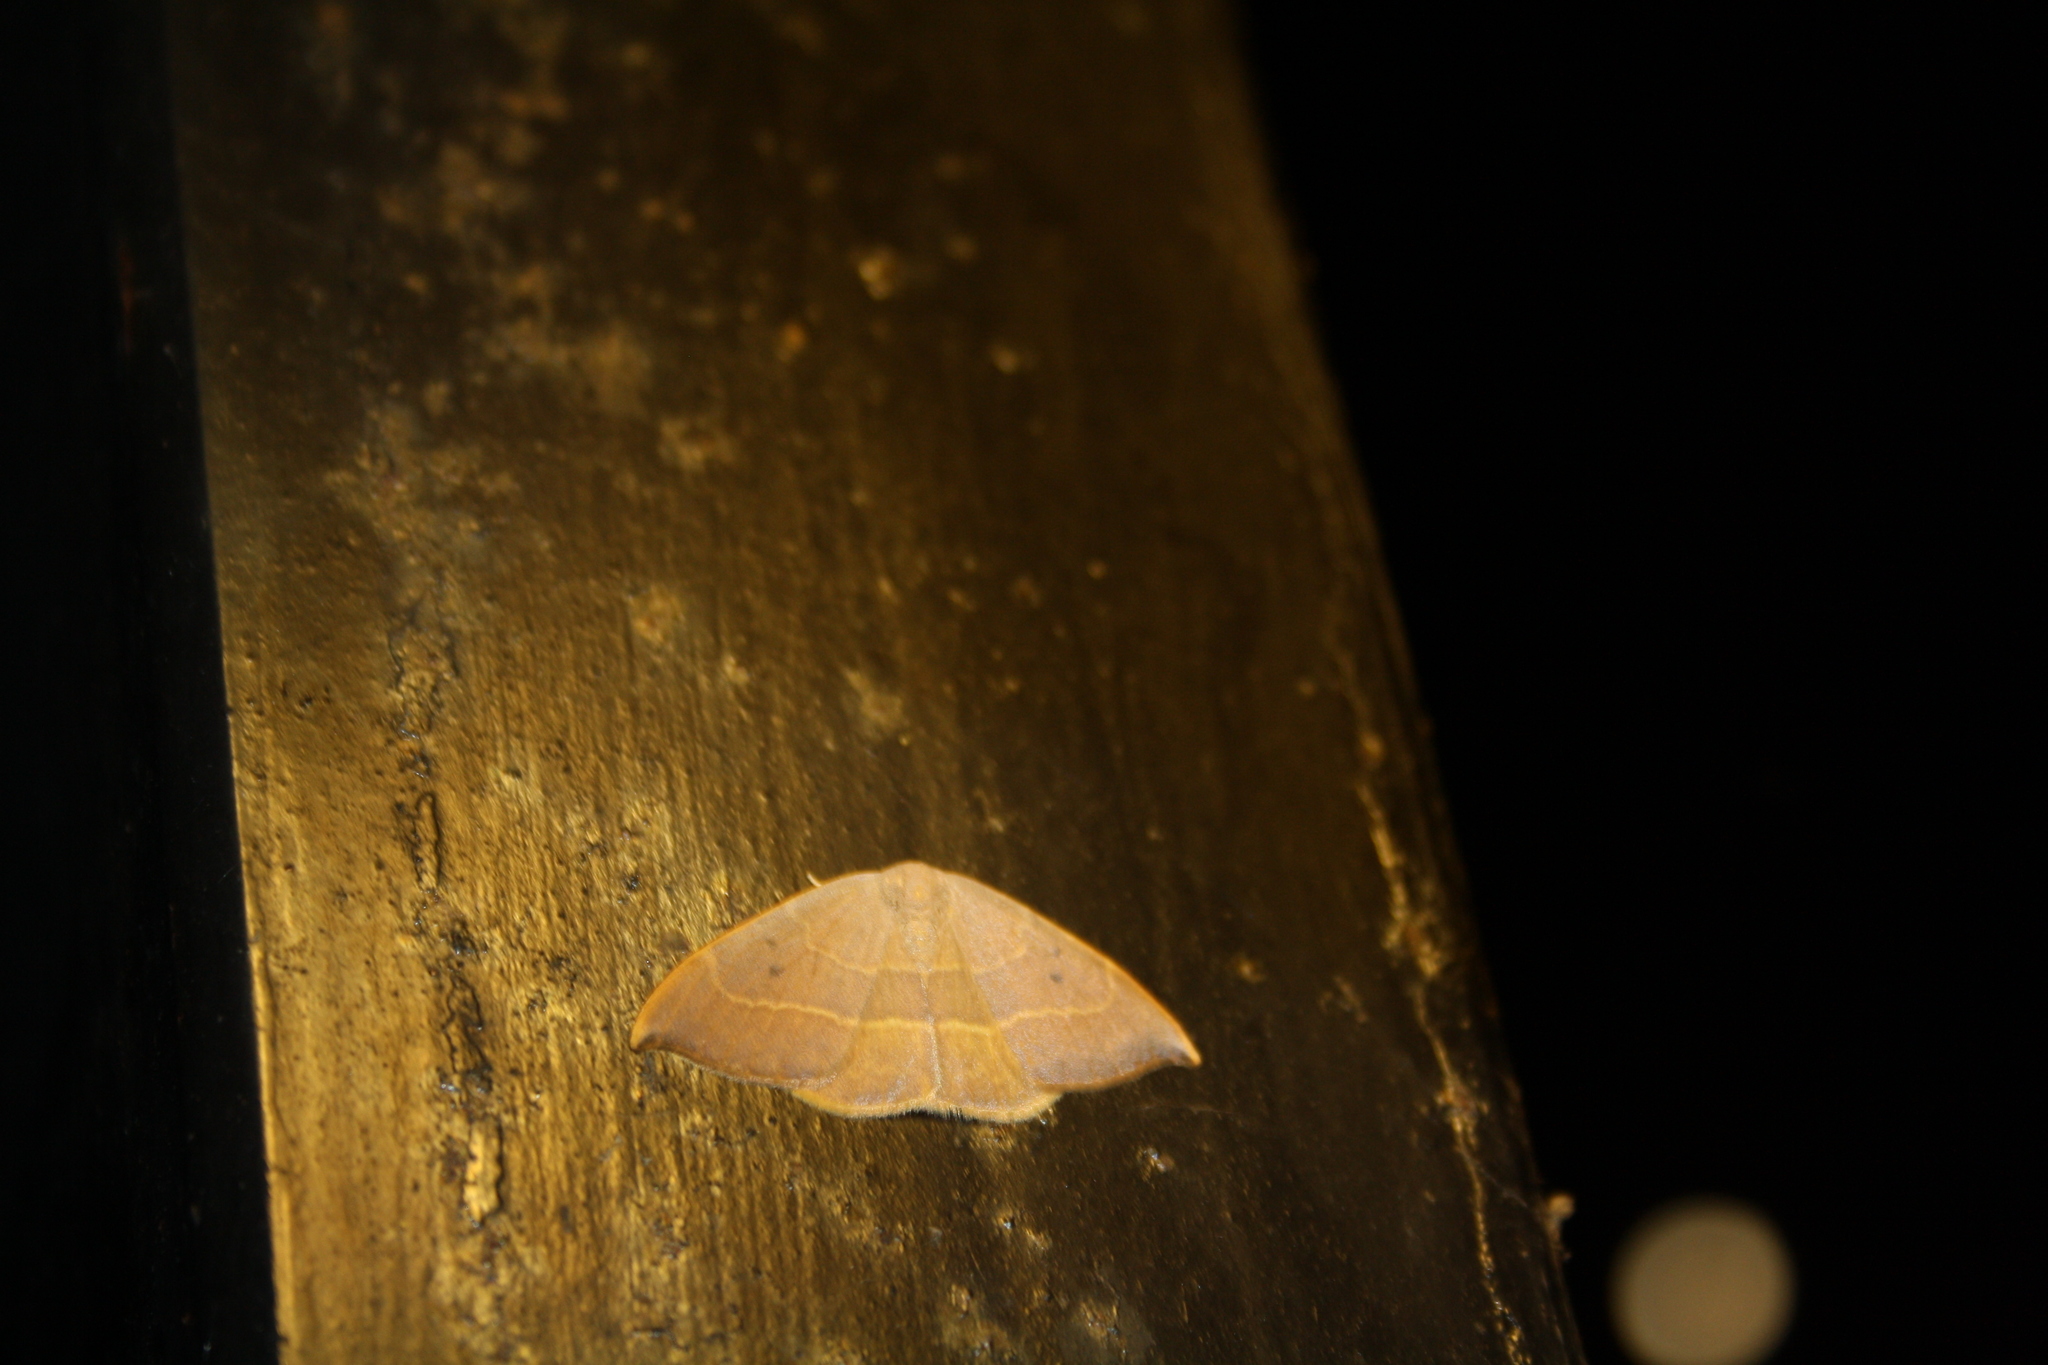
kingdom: Animalia
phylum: Arthropoda
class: Insecta
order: Lepidoptera
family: Drepanidae
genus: Watsonalla
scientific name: Watsonalla uncinula
